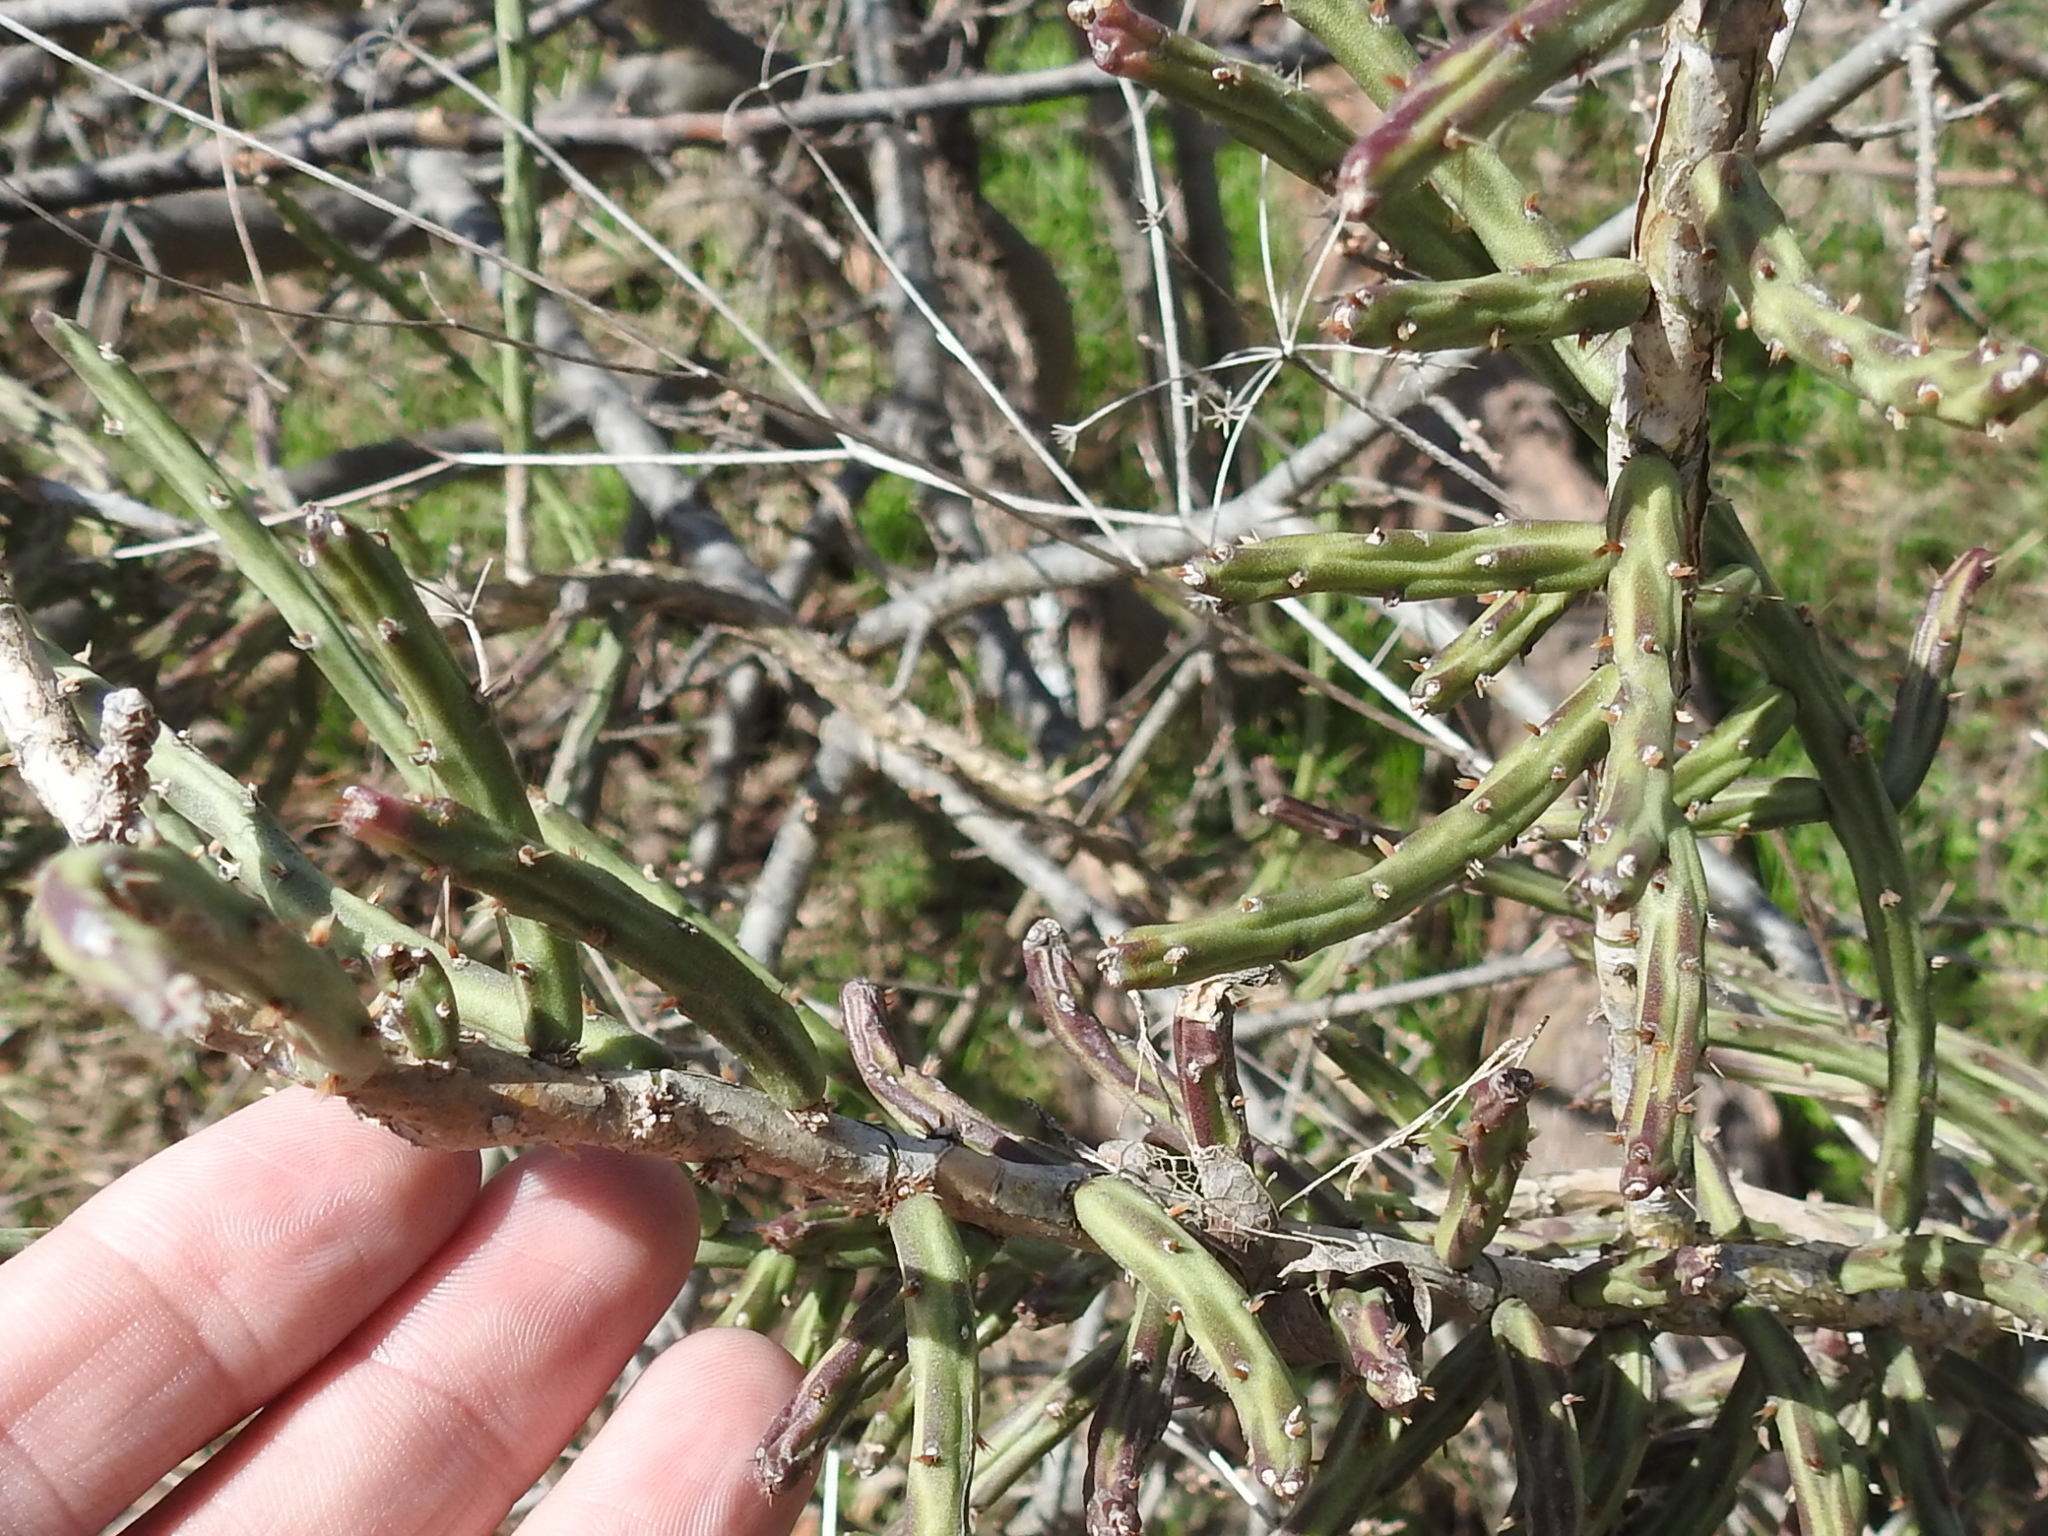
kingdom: Plantae
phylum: Tracheophyta
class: Magnoliopsida
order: Caryophyllales
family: Cactaceae
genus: Cylindropuntia
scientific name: Cylindropuntia leptocaulis
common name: Christmas cactus
